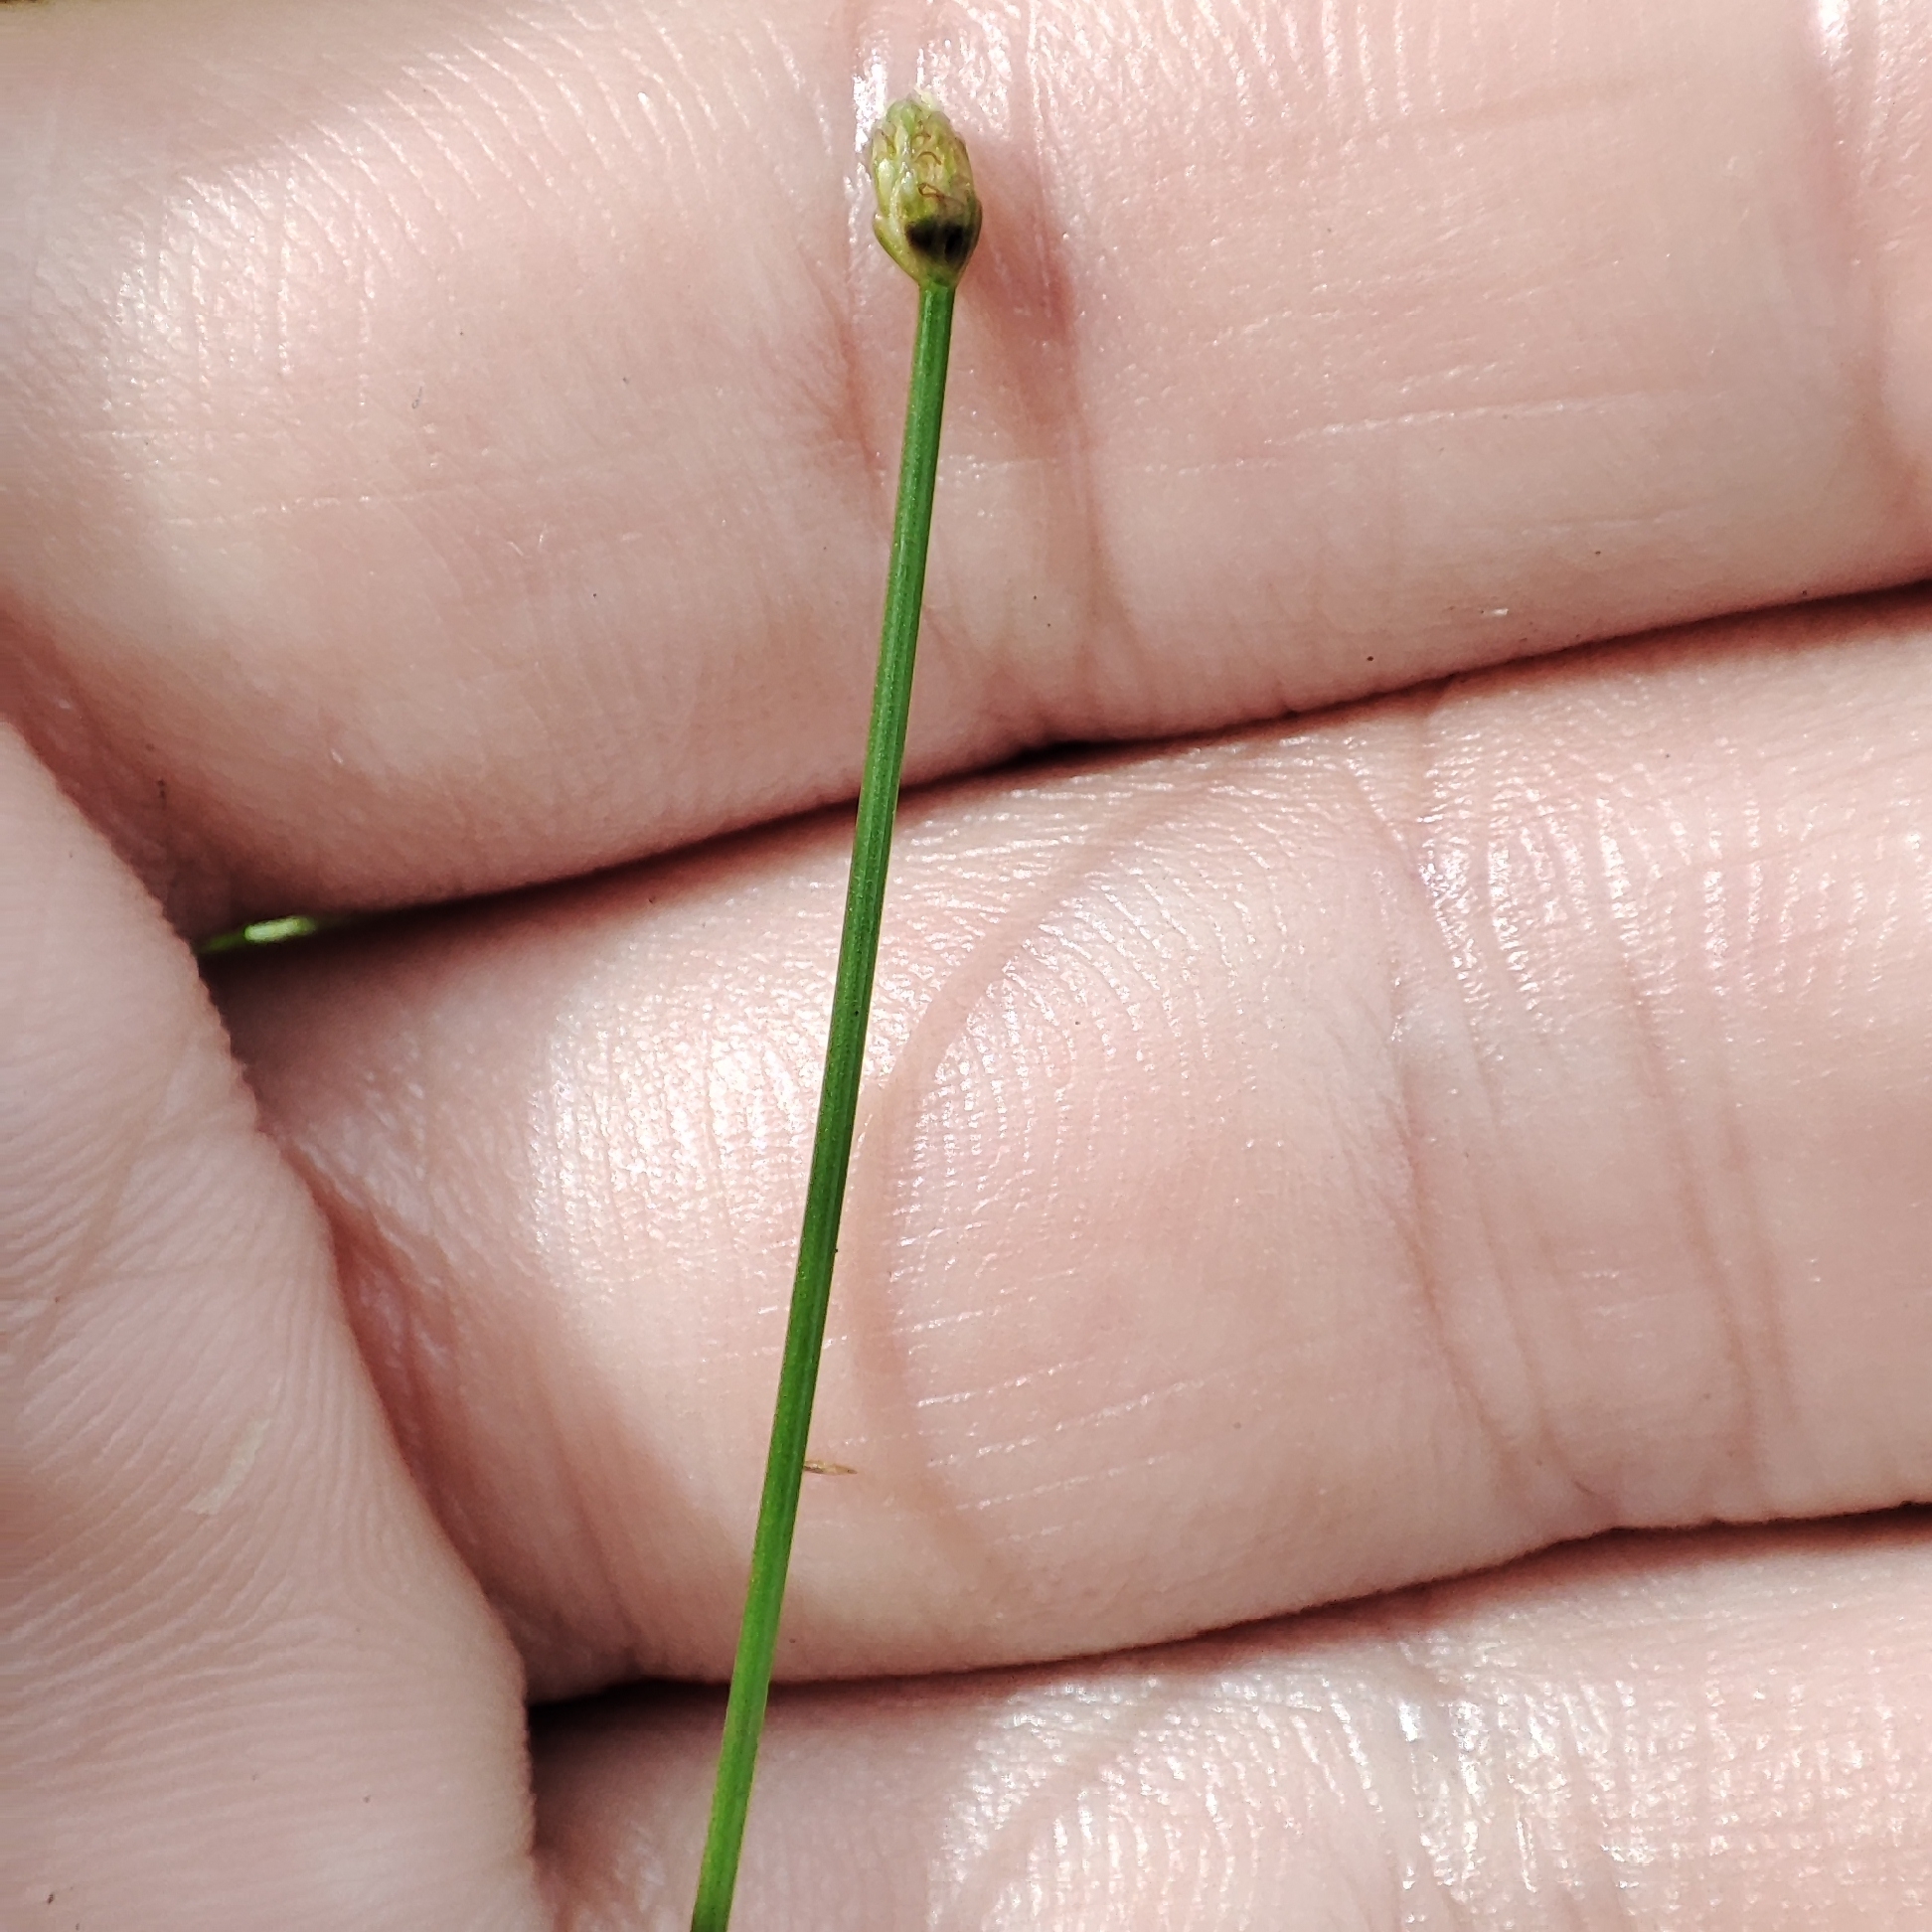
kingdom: Plantae
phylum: Tracheophyta
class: Liliopsida
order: Poales
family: Cyperaceae
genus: Eleocharis
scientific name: Eleocharis geniculata
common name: Canada spikesedge
